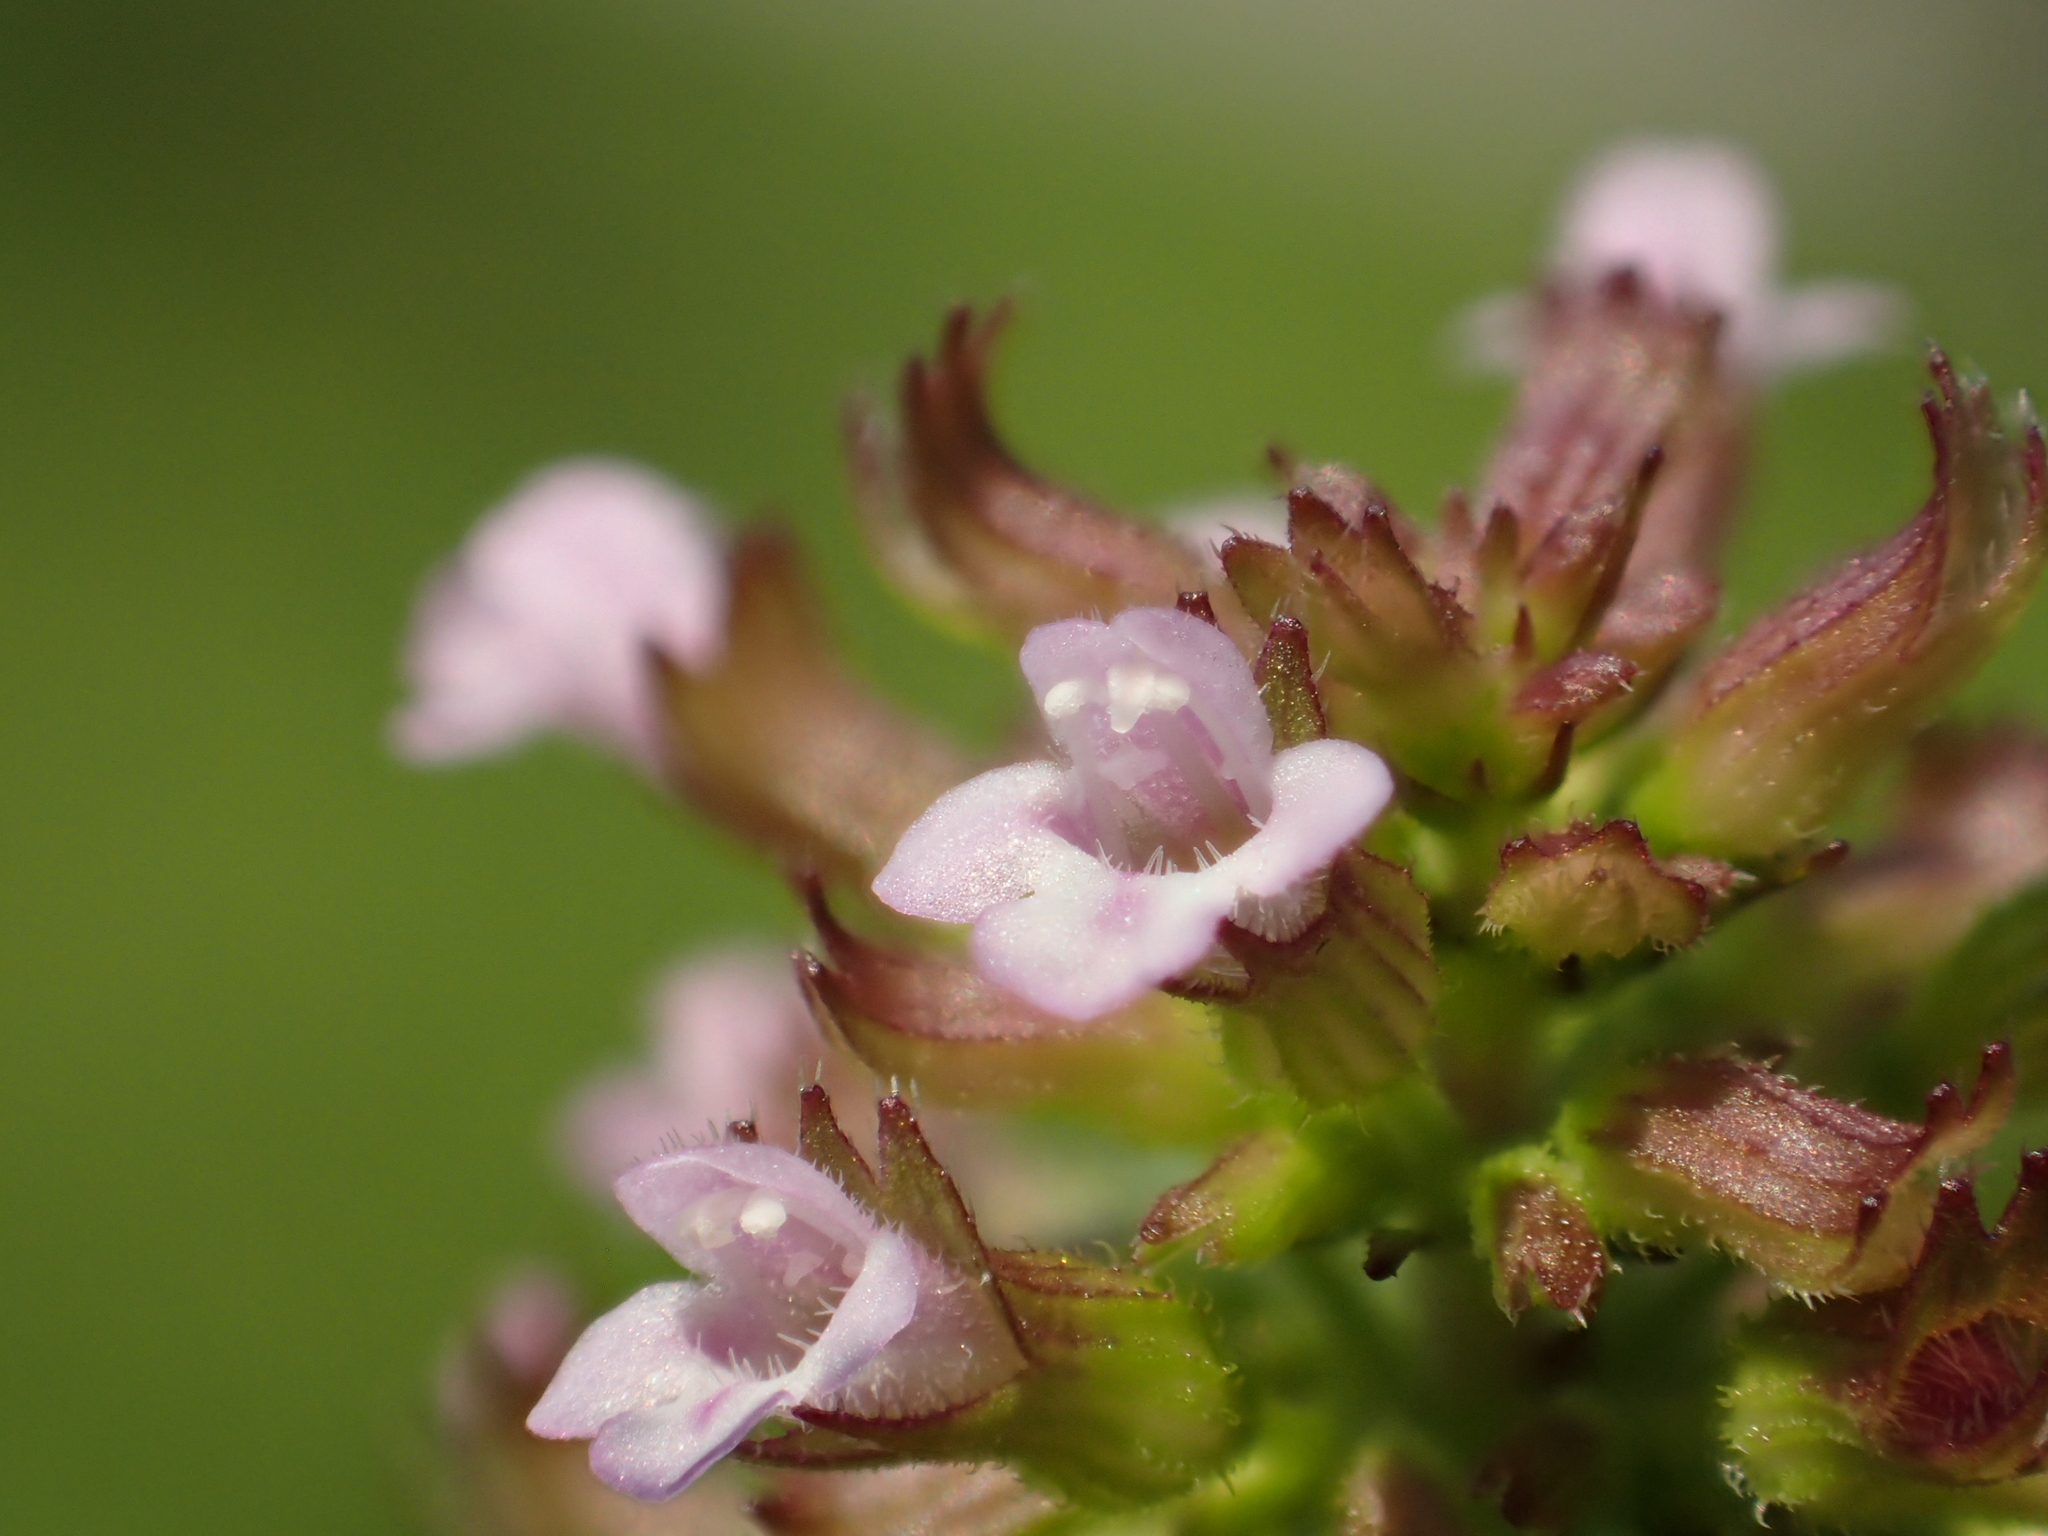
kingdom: Plantae
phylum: Tracheophyta
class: Magnoliopsida
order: Lamiales
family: Lamiaceae
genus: Clinopodium
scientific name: Clinopodium gracile
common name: Slender wild basil
